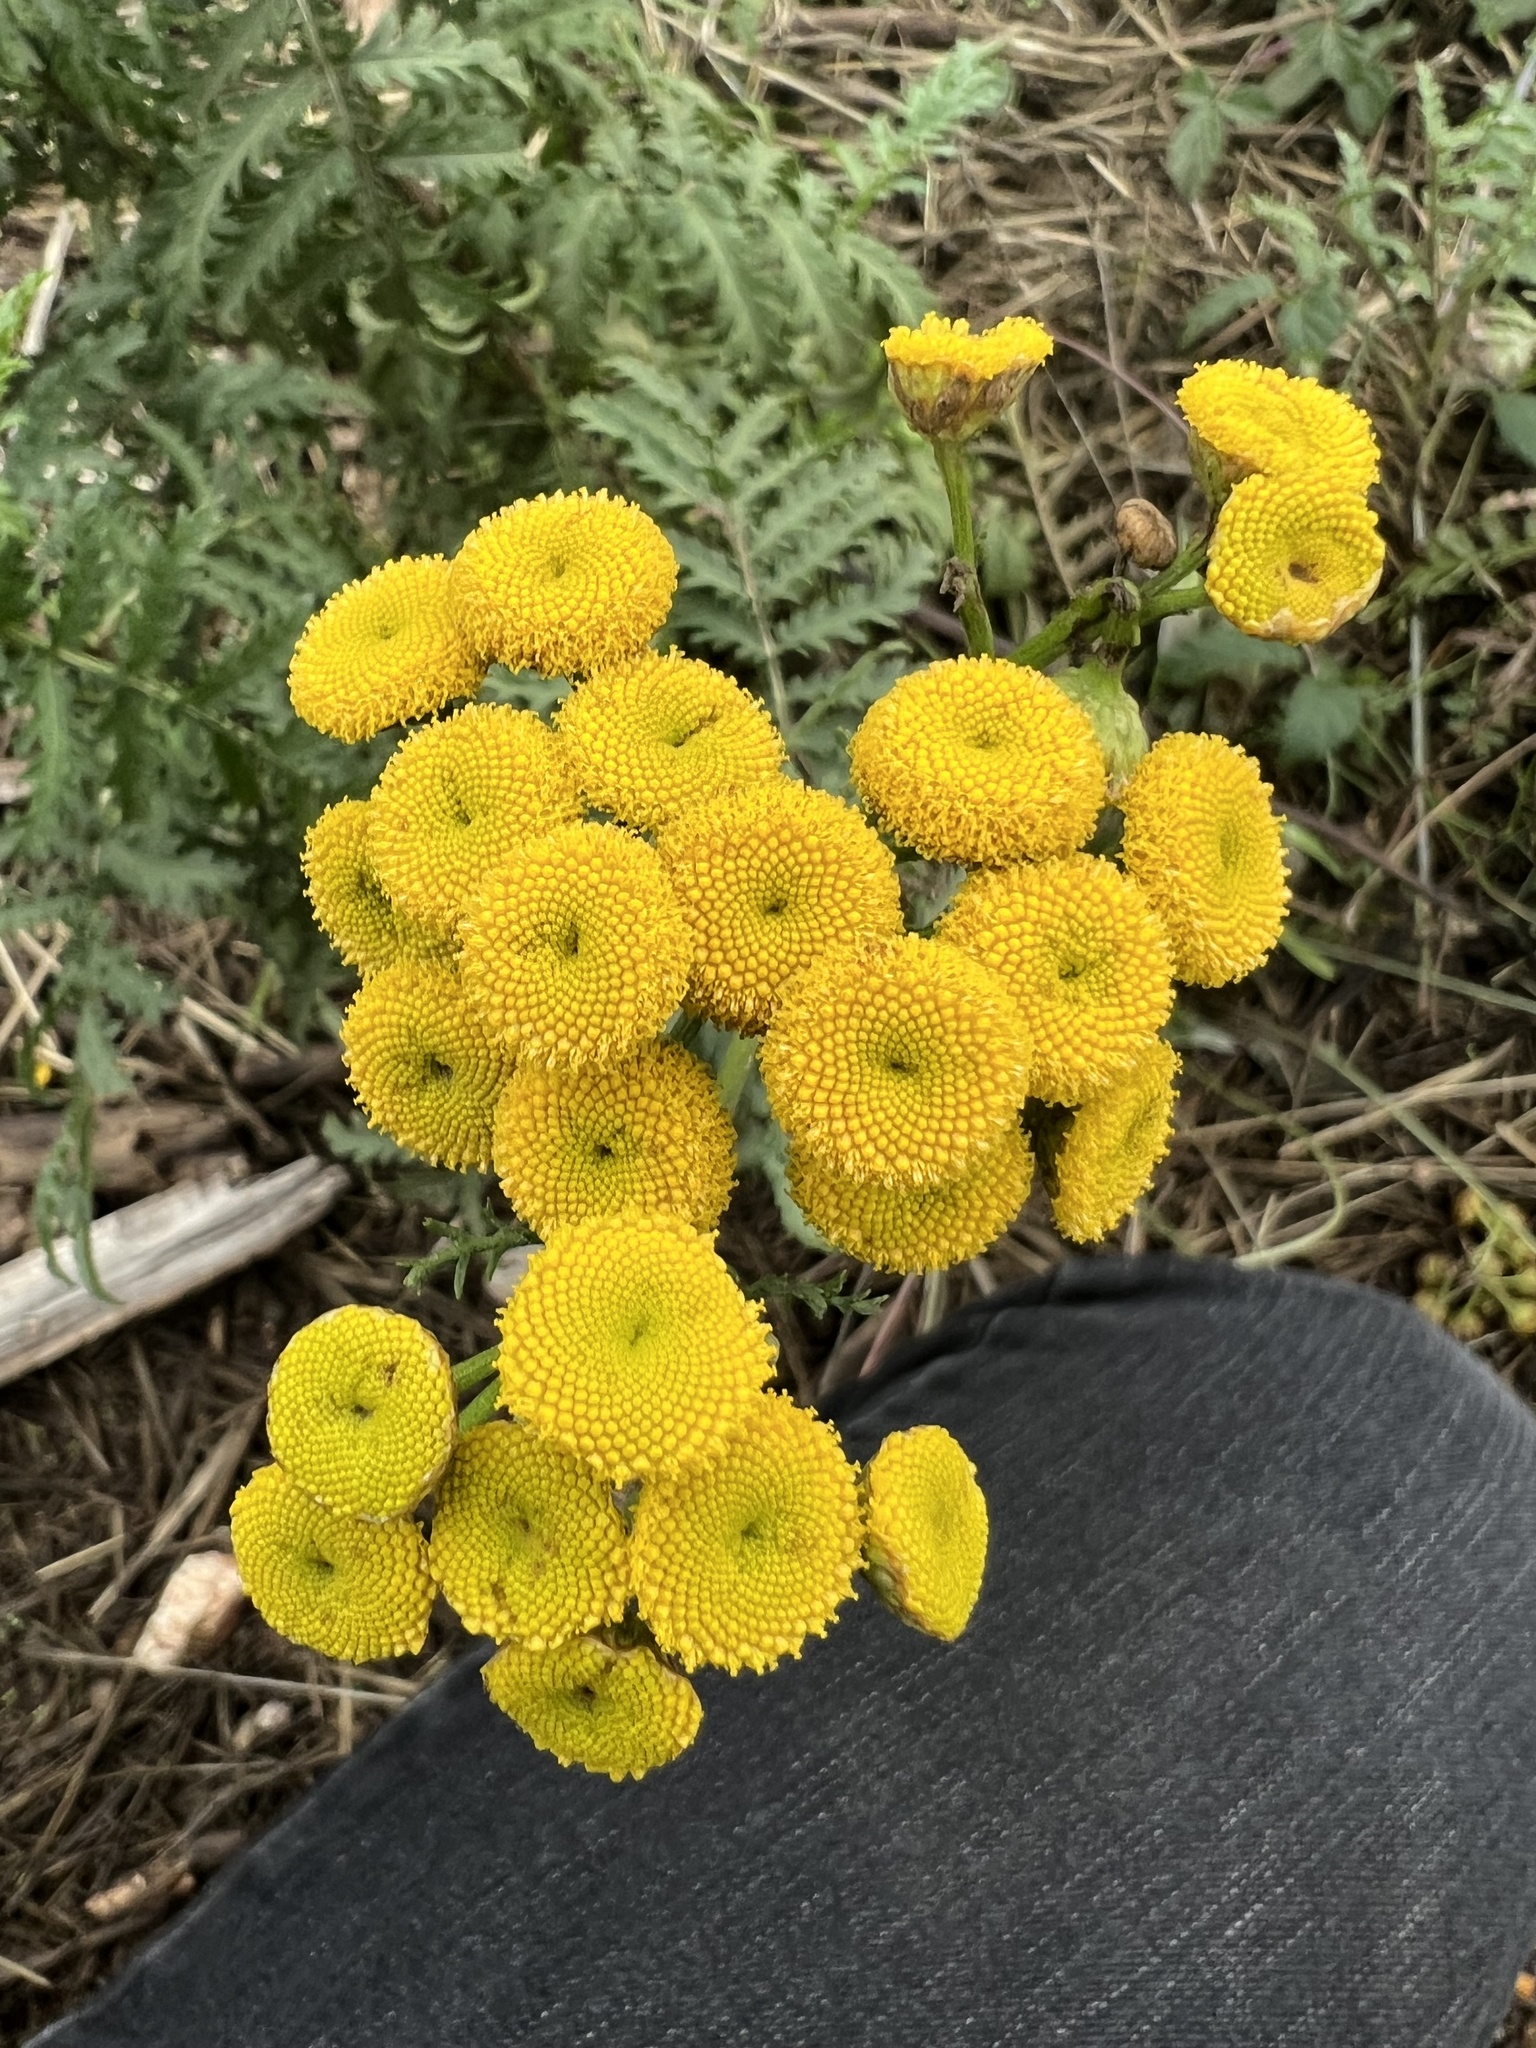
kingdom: Plantae
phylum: Tracheophyta
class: Magnoliopsida
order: Asterales
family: Asteraceae
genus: Tanacetum
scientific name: Tanacetum vulgare
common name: Common tansy
